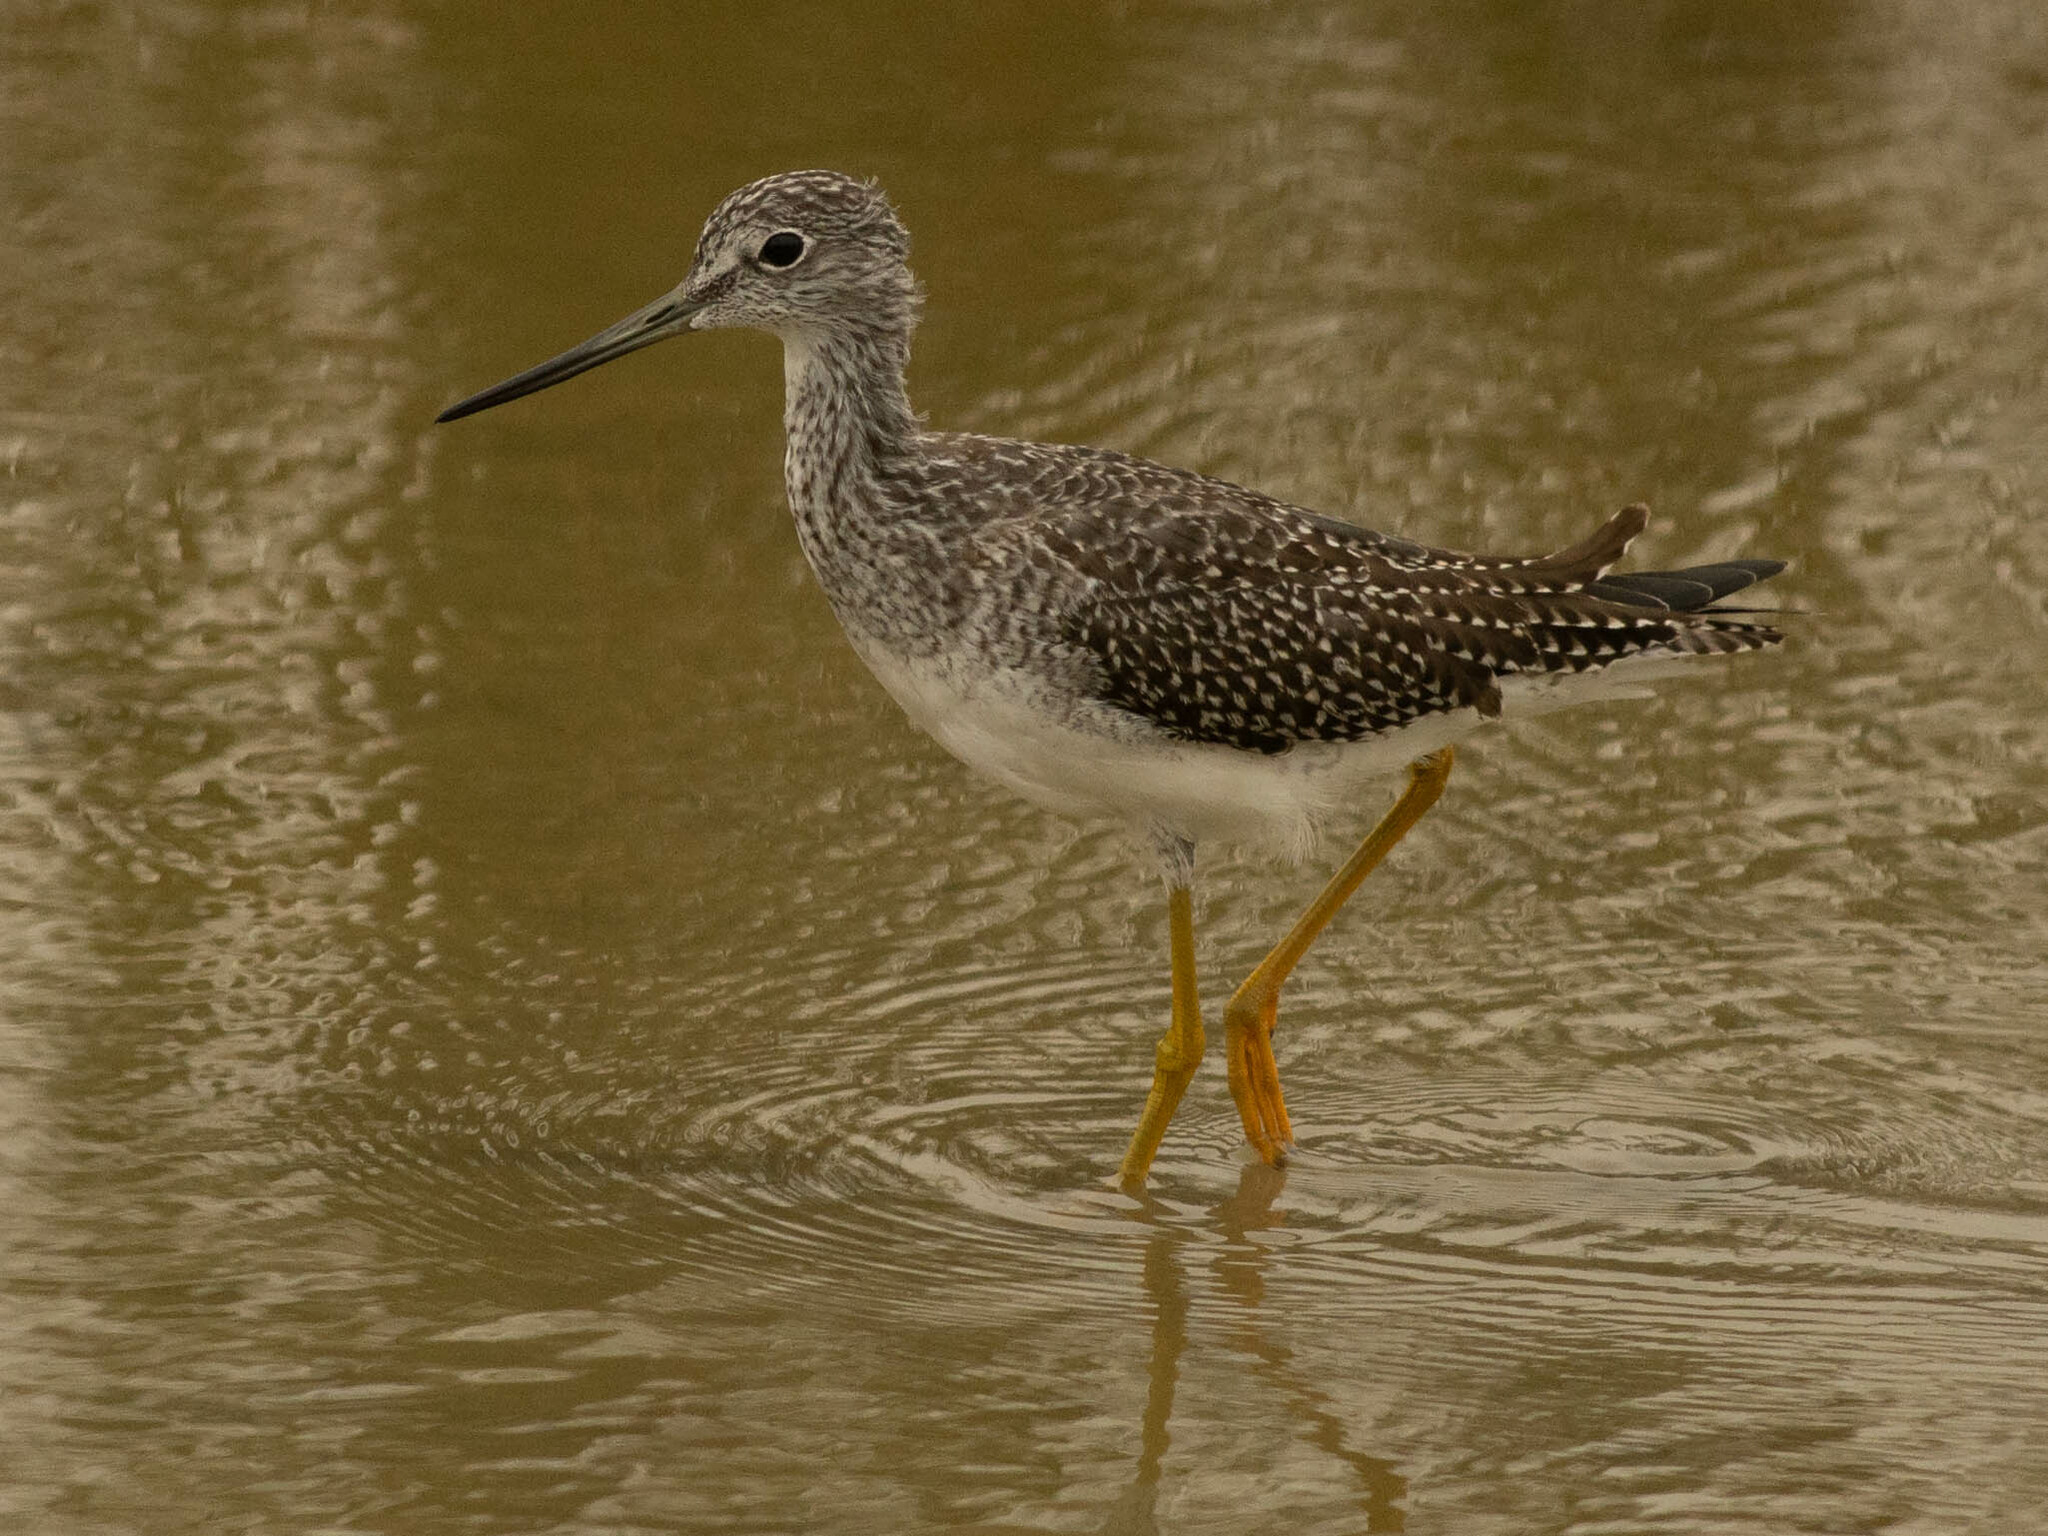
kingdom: Animalia
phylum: Chordata
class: Aves
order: Charadriiformes
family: Scolopacidae
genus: Tringa
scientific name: Tringa melanoleuca
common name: Greater yellowlegs
